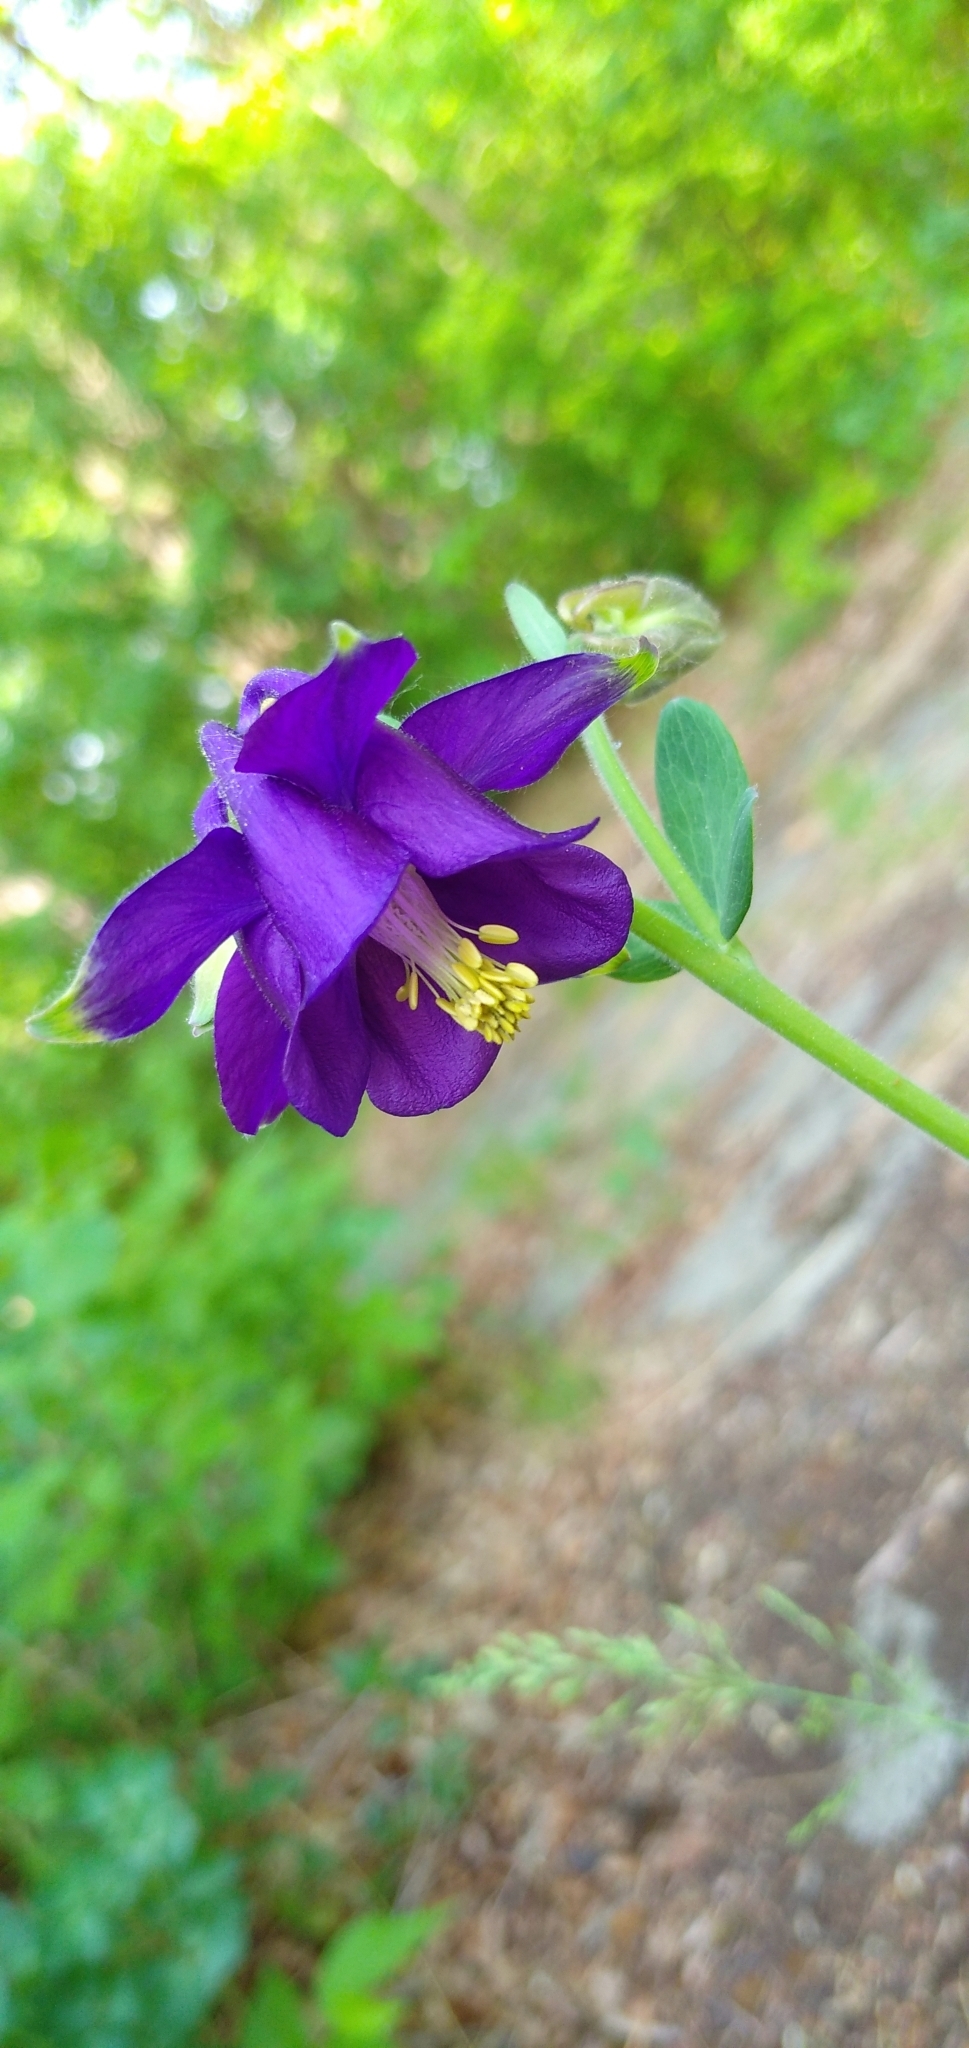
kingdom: Plantae
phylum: Tracheophyta
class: Magnoliopsida
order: Ranunculales
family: Ranunculaceae
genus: Aquilegia
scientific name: Aquilegia vulgaris
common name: Columbine
